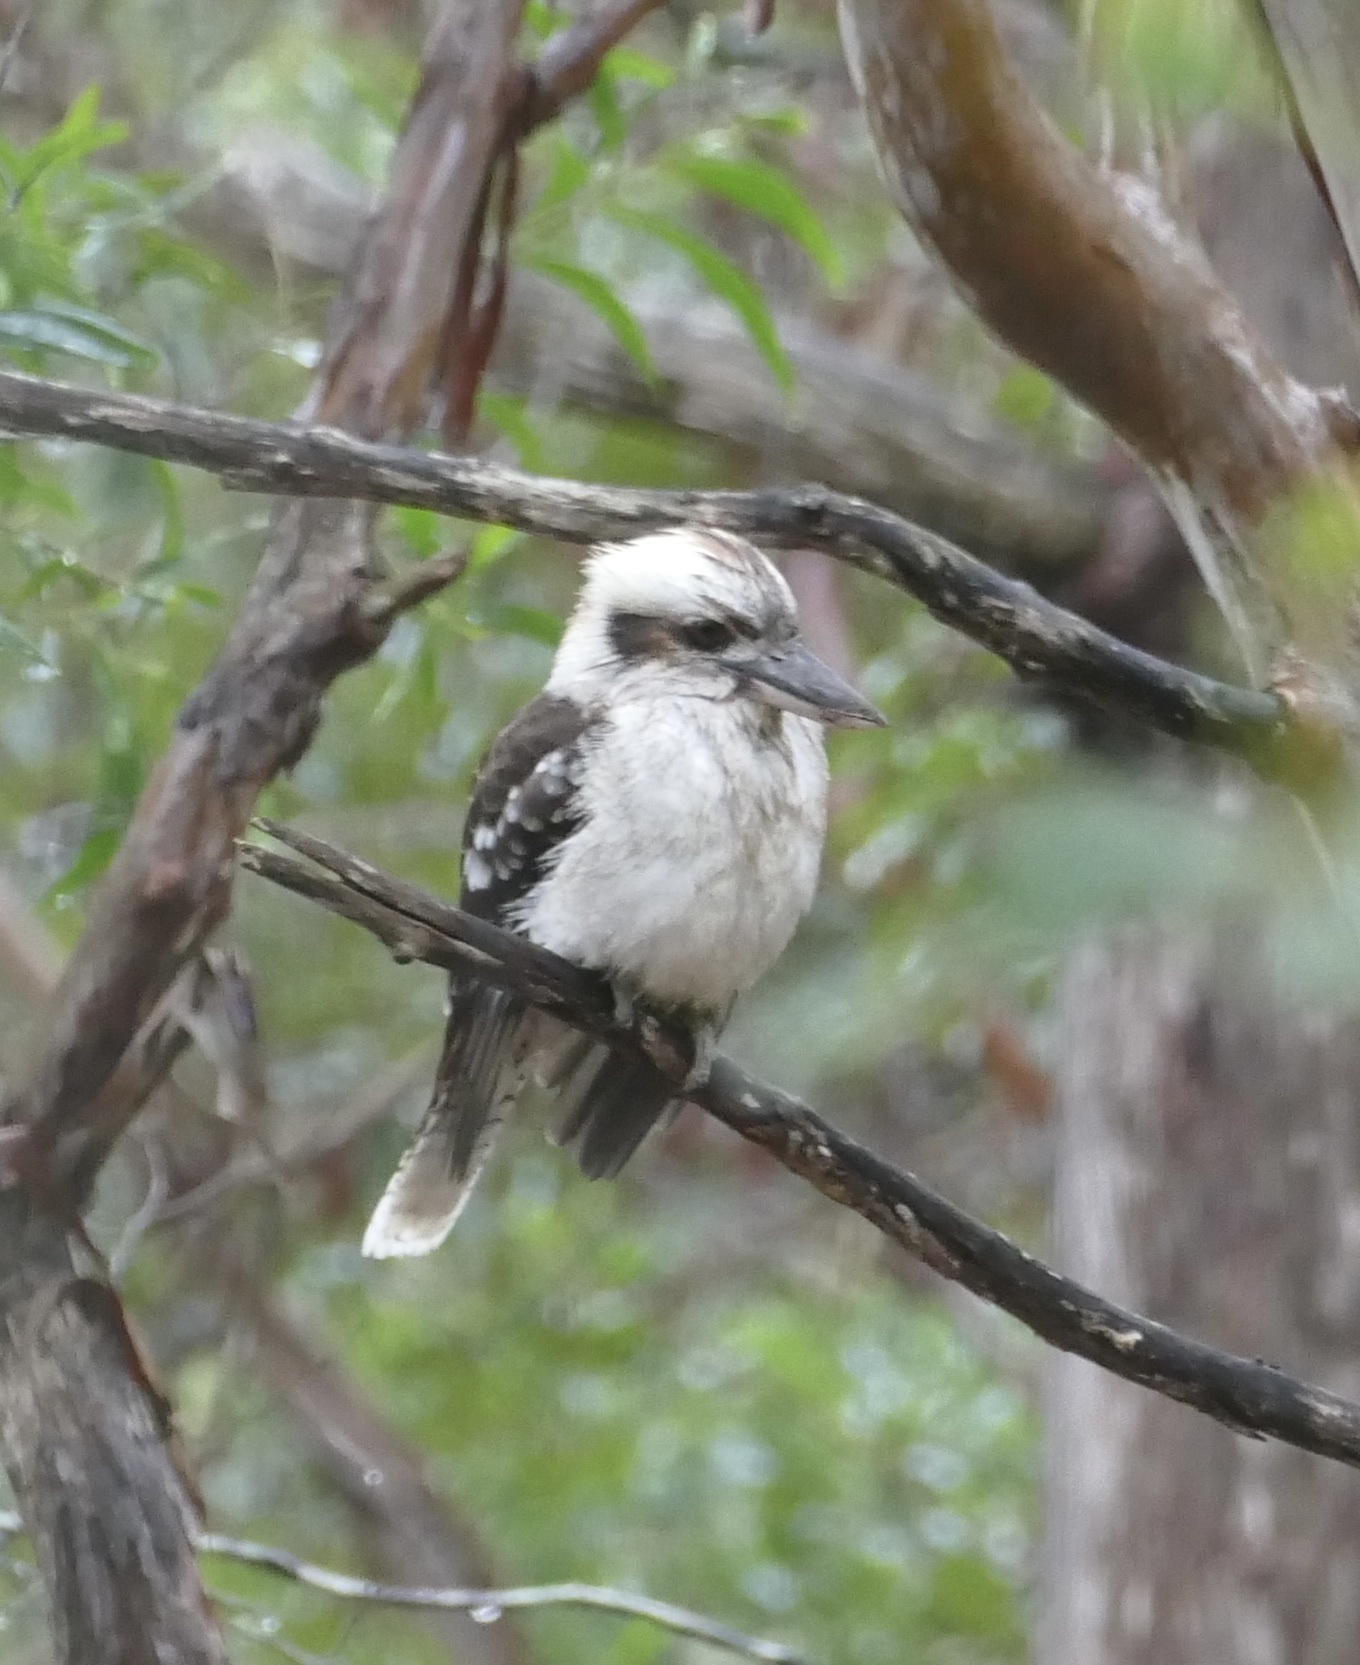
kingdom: Animalia
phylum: Chordata
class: Aves
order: Coraciiformes
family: Alcedinidae
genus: Dacelo
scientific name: Dacelo novaeguineae
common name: Laughing kookaburra
